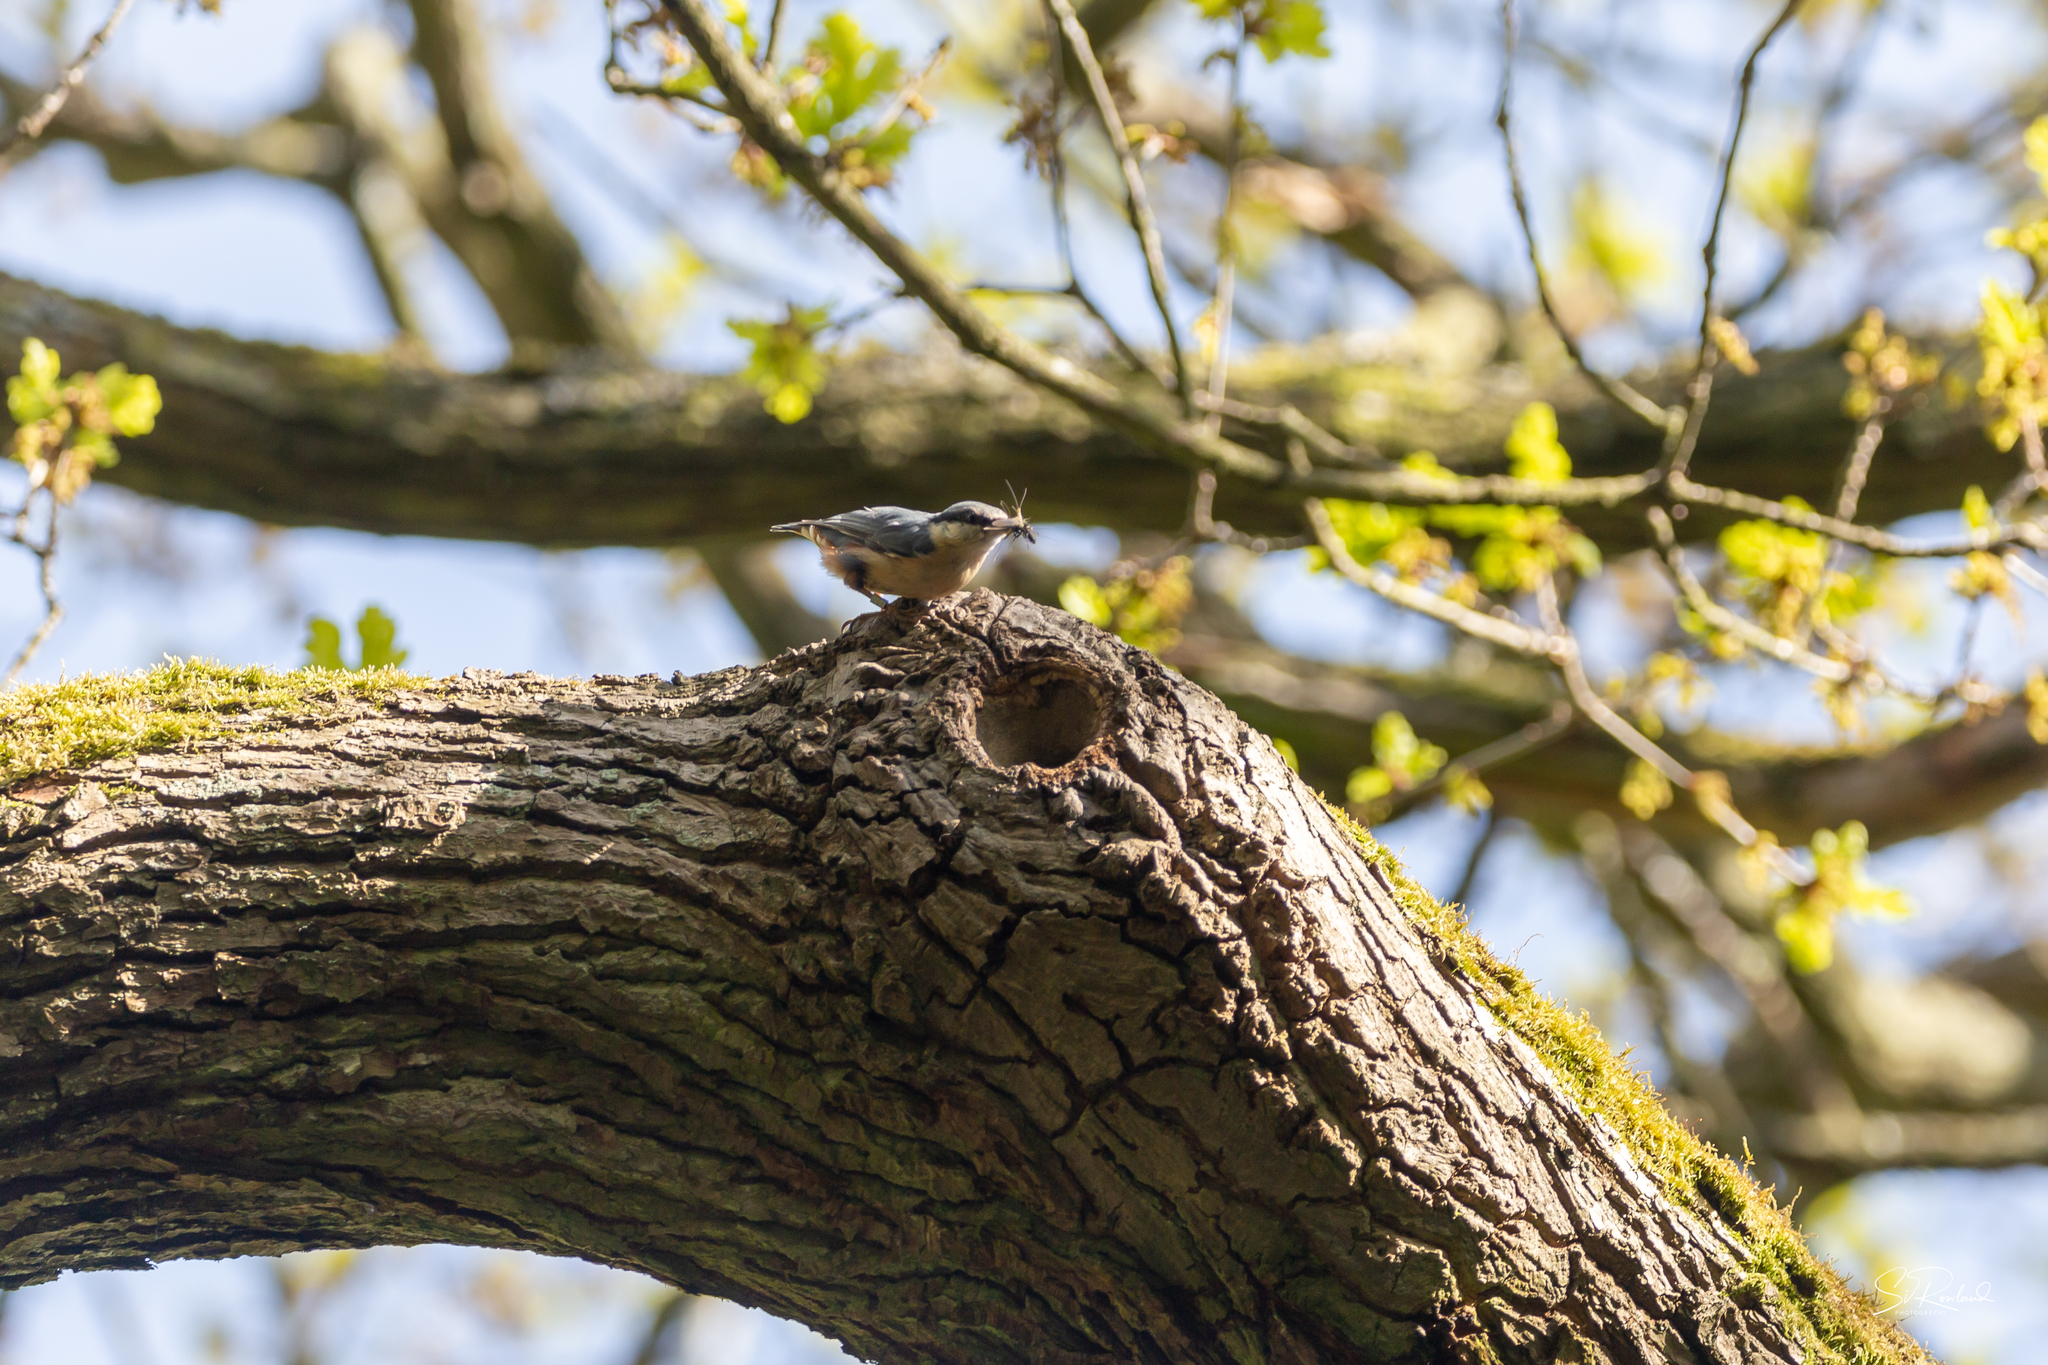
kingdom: Animalia
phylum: Chordata
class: Aves
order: Passeriformes
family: Sittidae
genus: Sitta
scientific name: Sitta europaea
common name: Eurasian nuthatch
